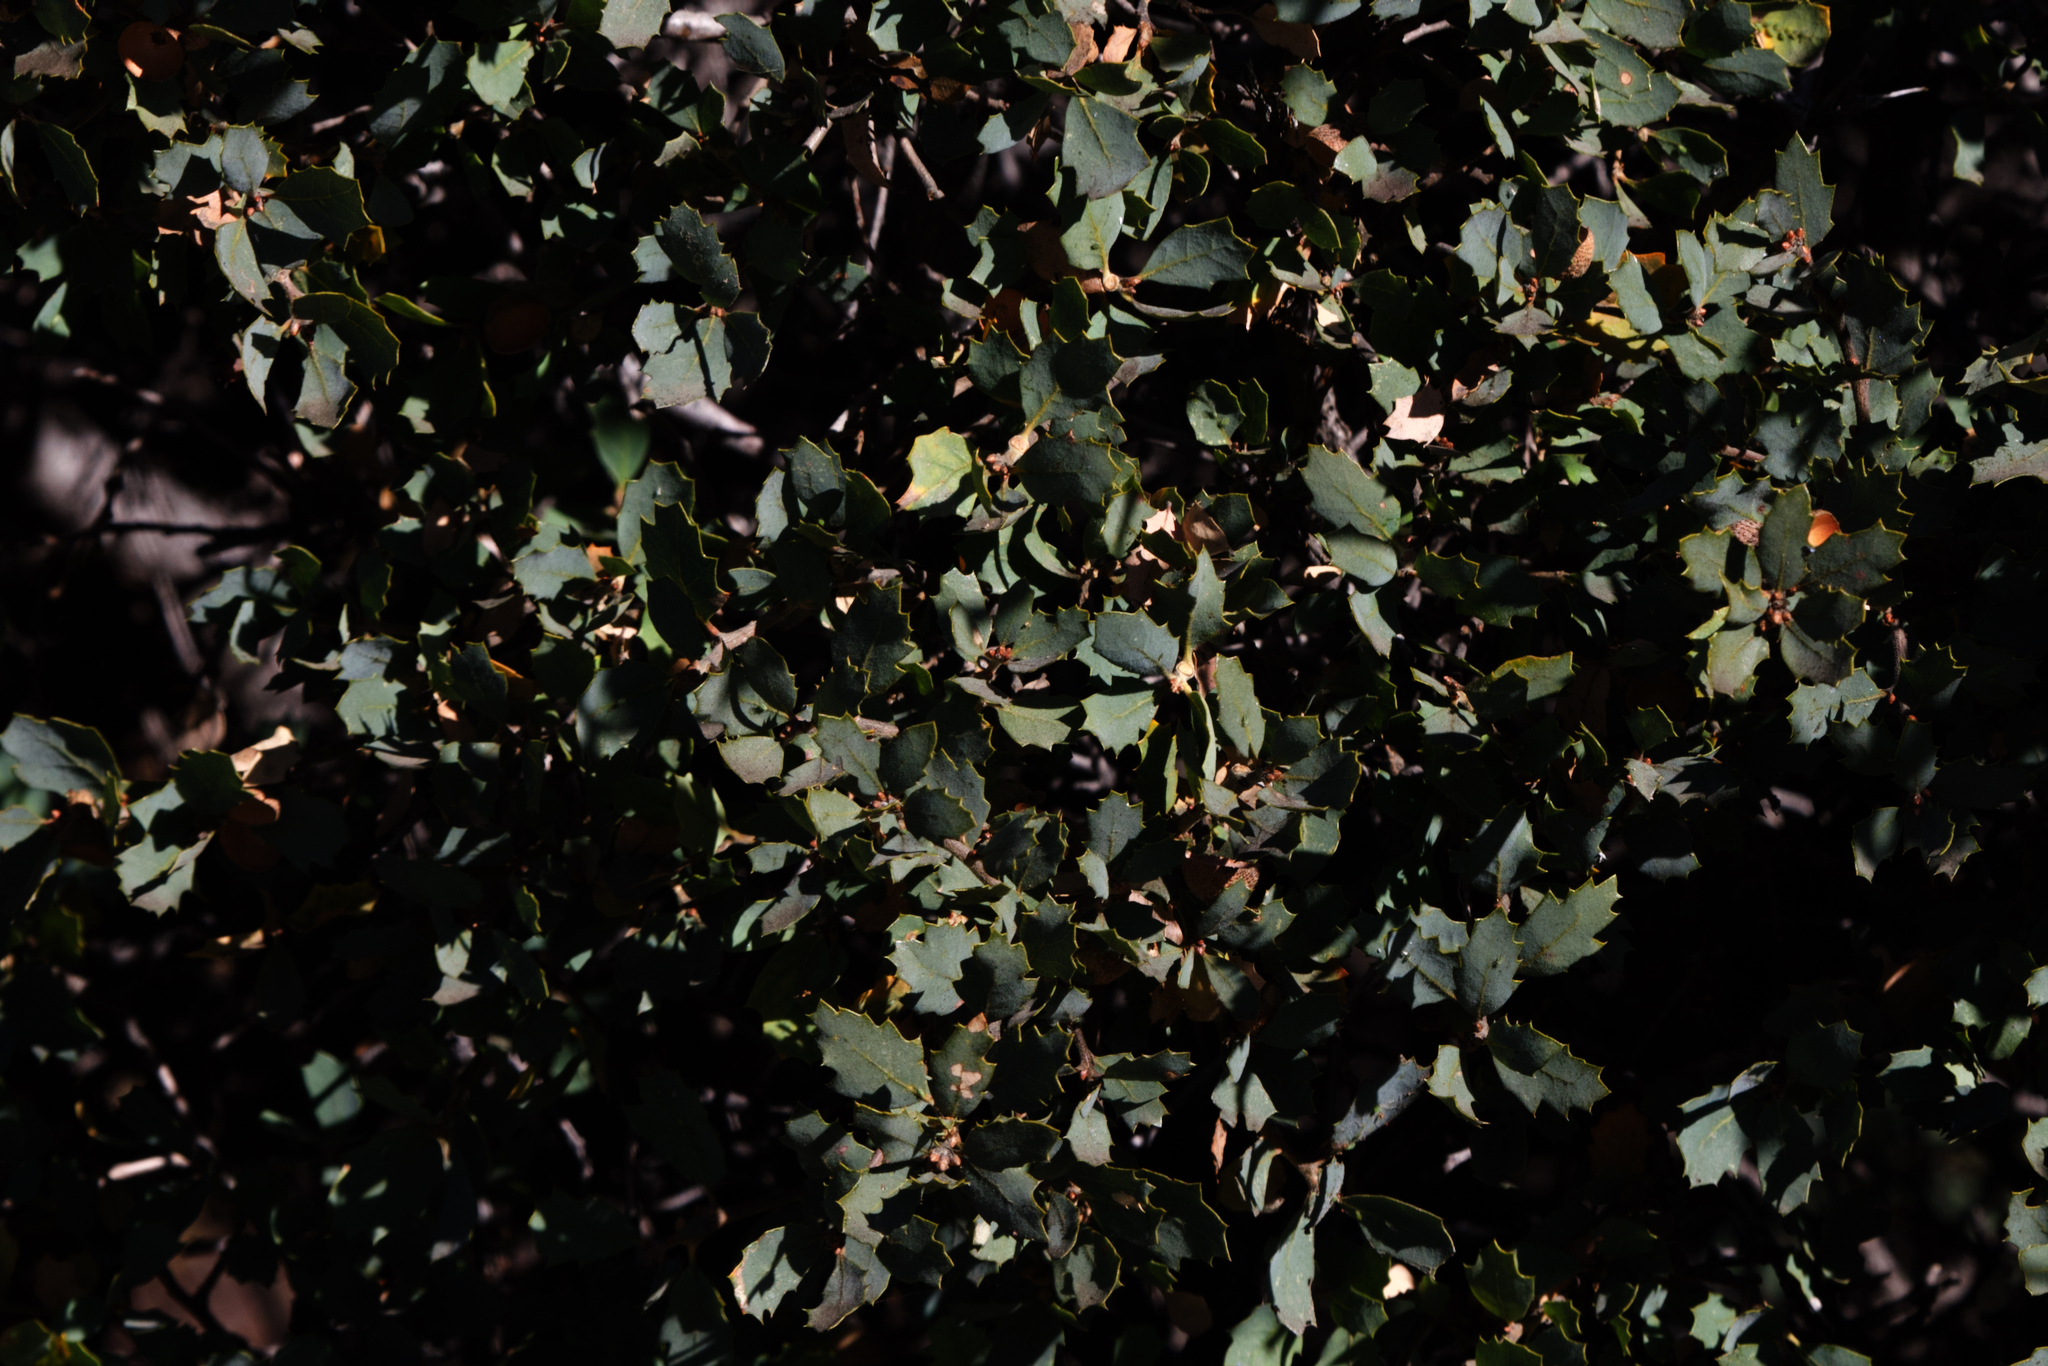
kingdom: Plantae
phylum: Tracheophyta
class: Magnoliopsida
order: Fagales
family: Fagaceae
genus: Quercus
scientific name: Quercus john-tuckeri
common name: Tucker's oak
